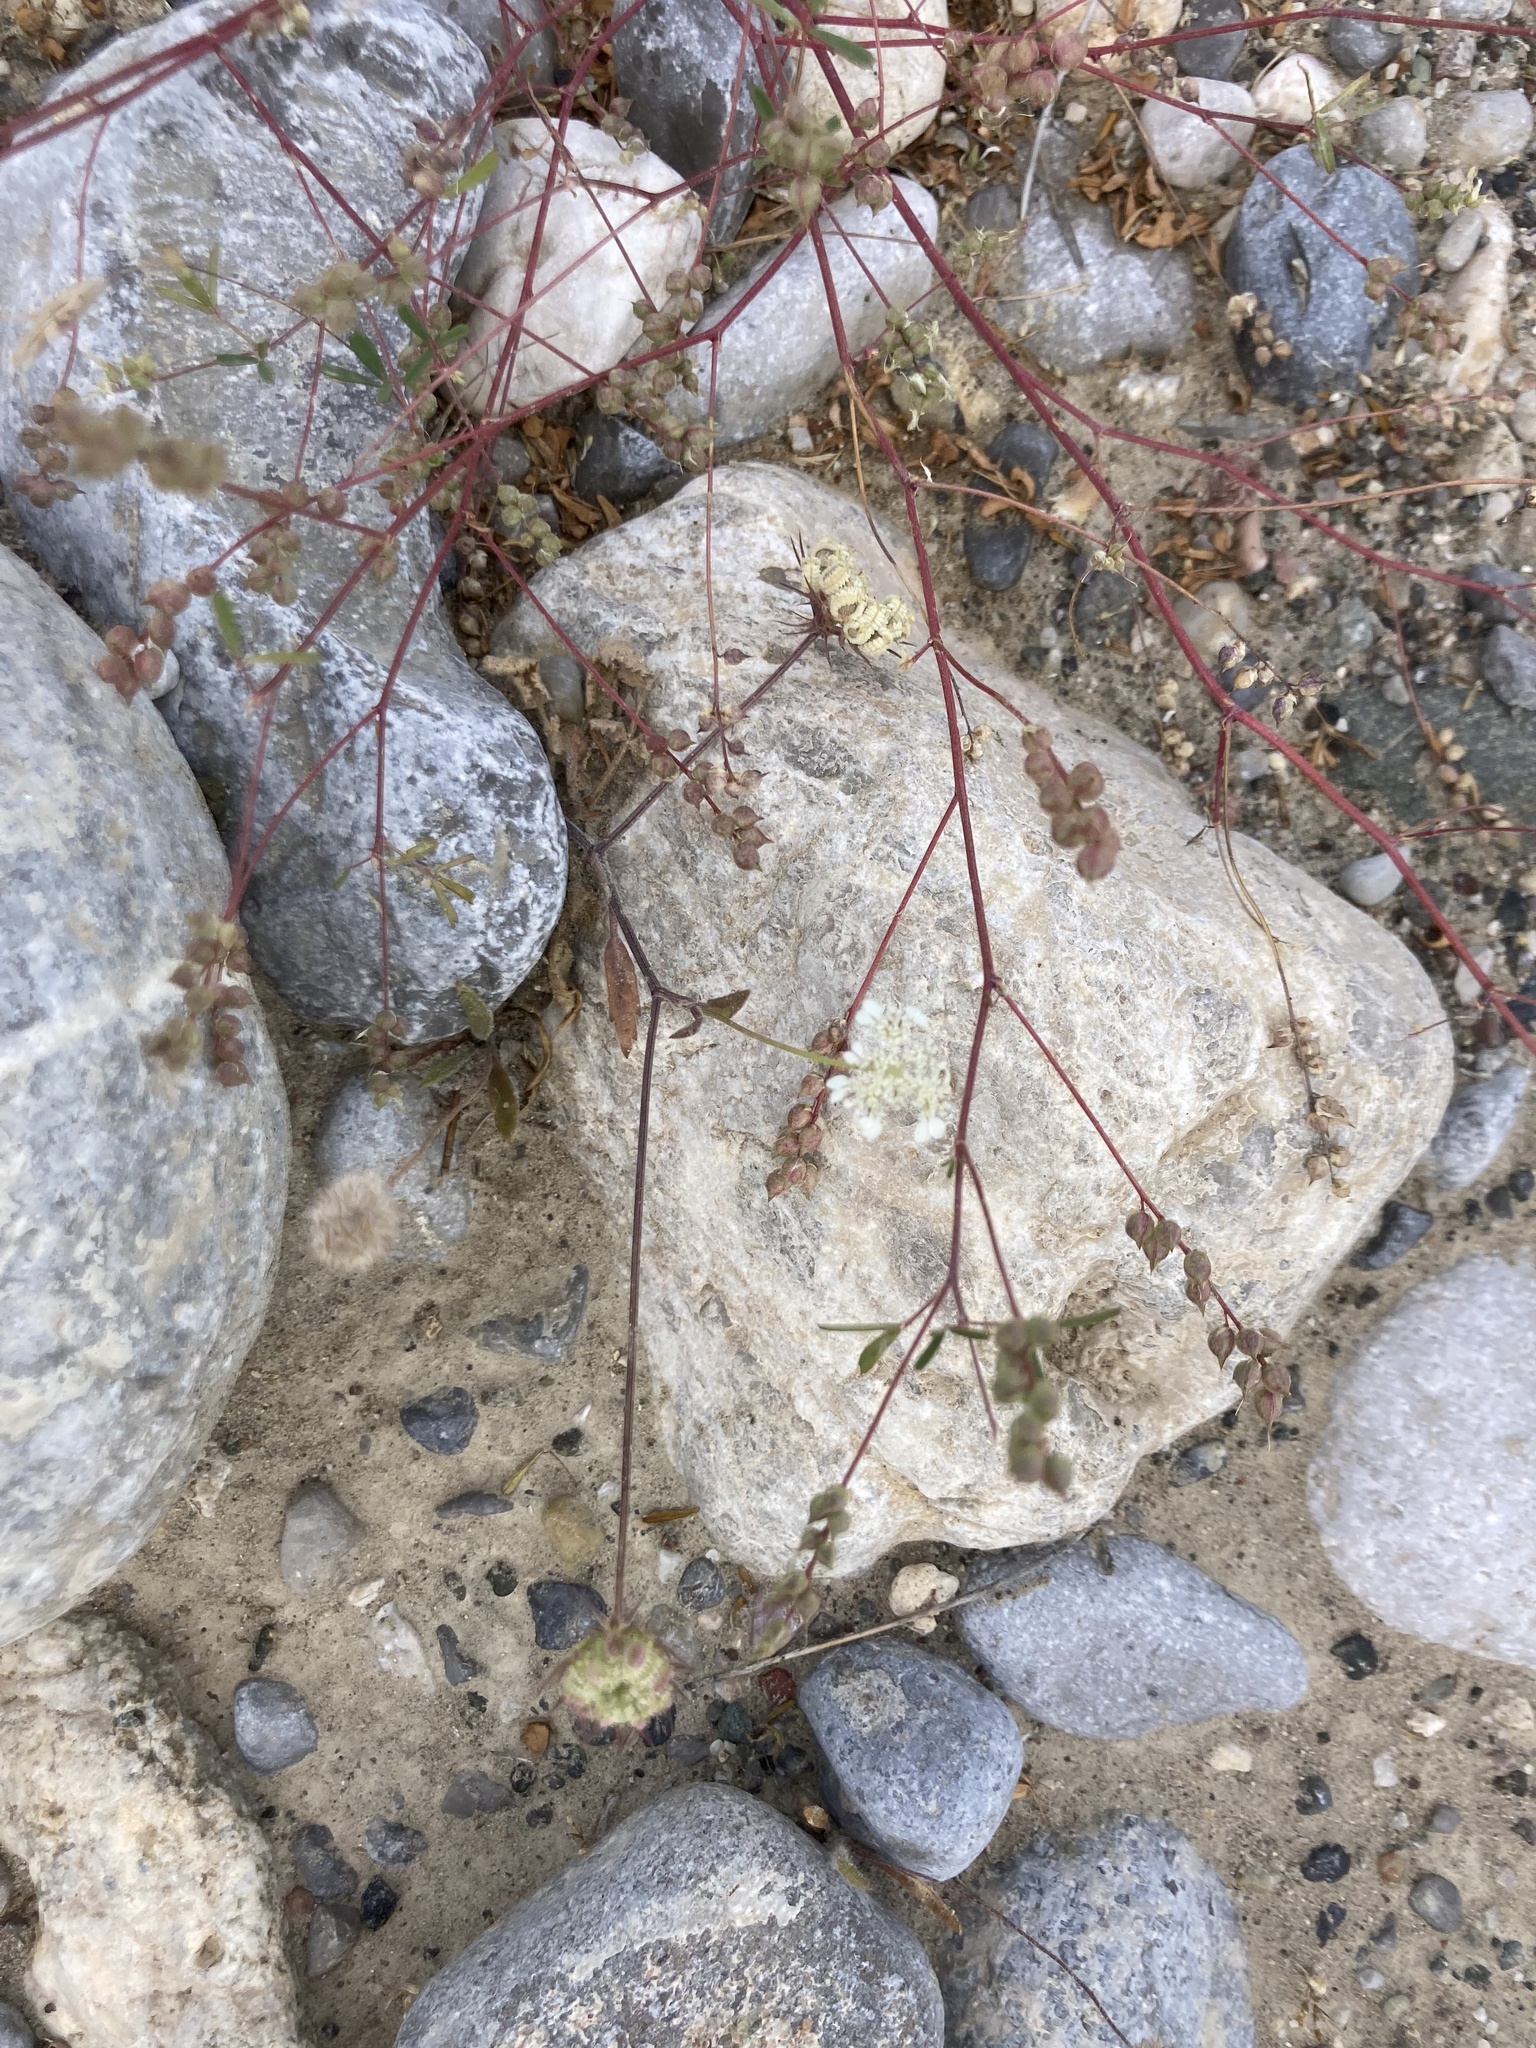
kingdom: Plantae
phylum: Tracheophyta
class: Magnoliopsida
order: Fabales
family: Fabaceae
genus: Melilotus
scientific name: Melilotus neapolitanus
